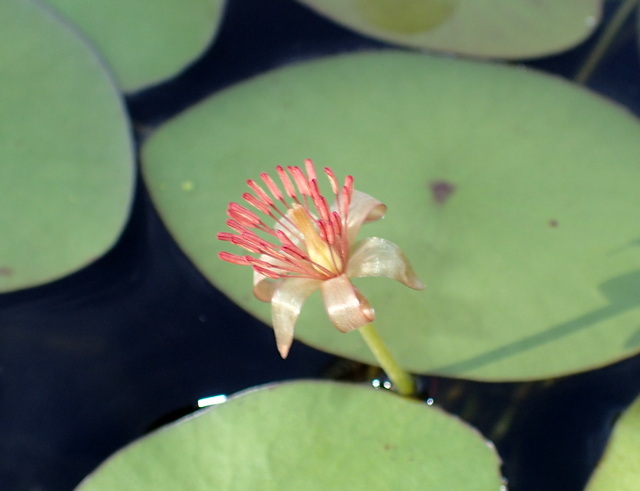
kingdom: Plantae
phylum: Tracheophyta
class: Magnoliopsida
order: Nymphaeales
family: Cabombaceae
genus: Brasenia
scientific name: Brasenia schreberi
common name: Water-shield
